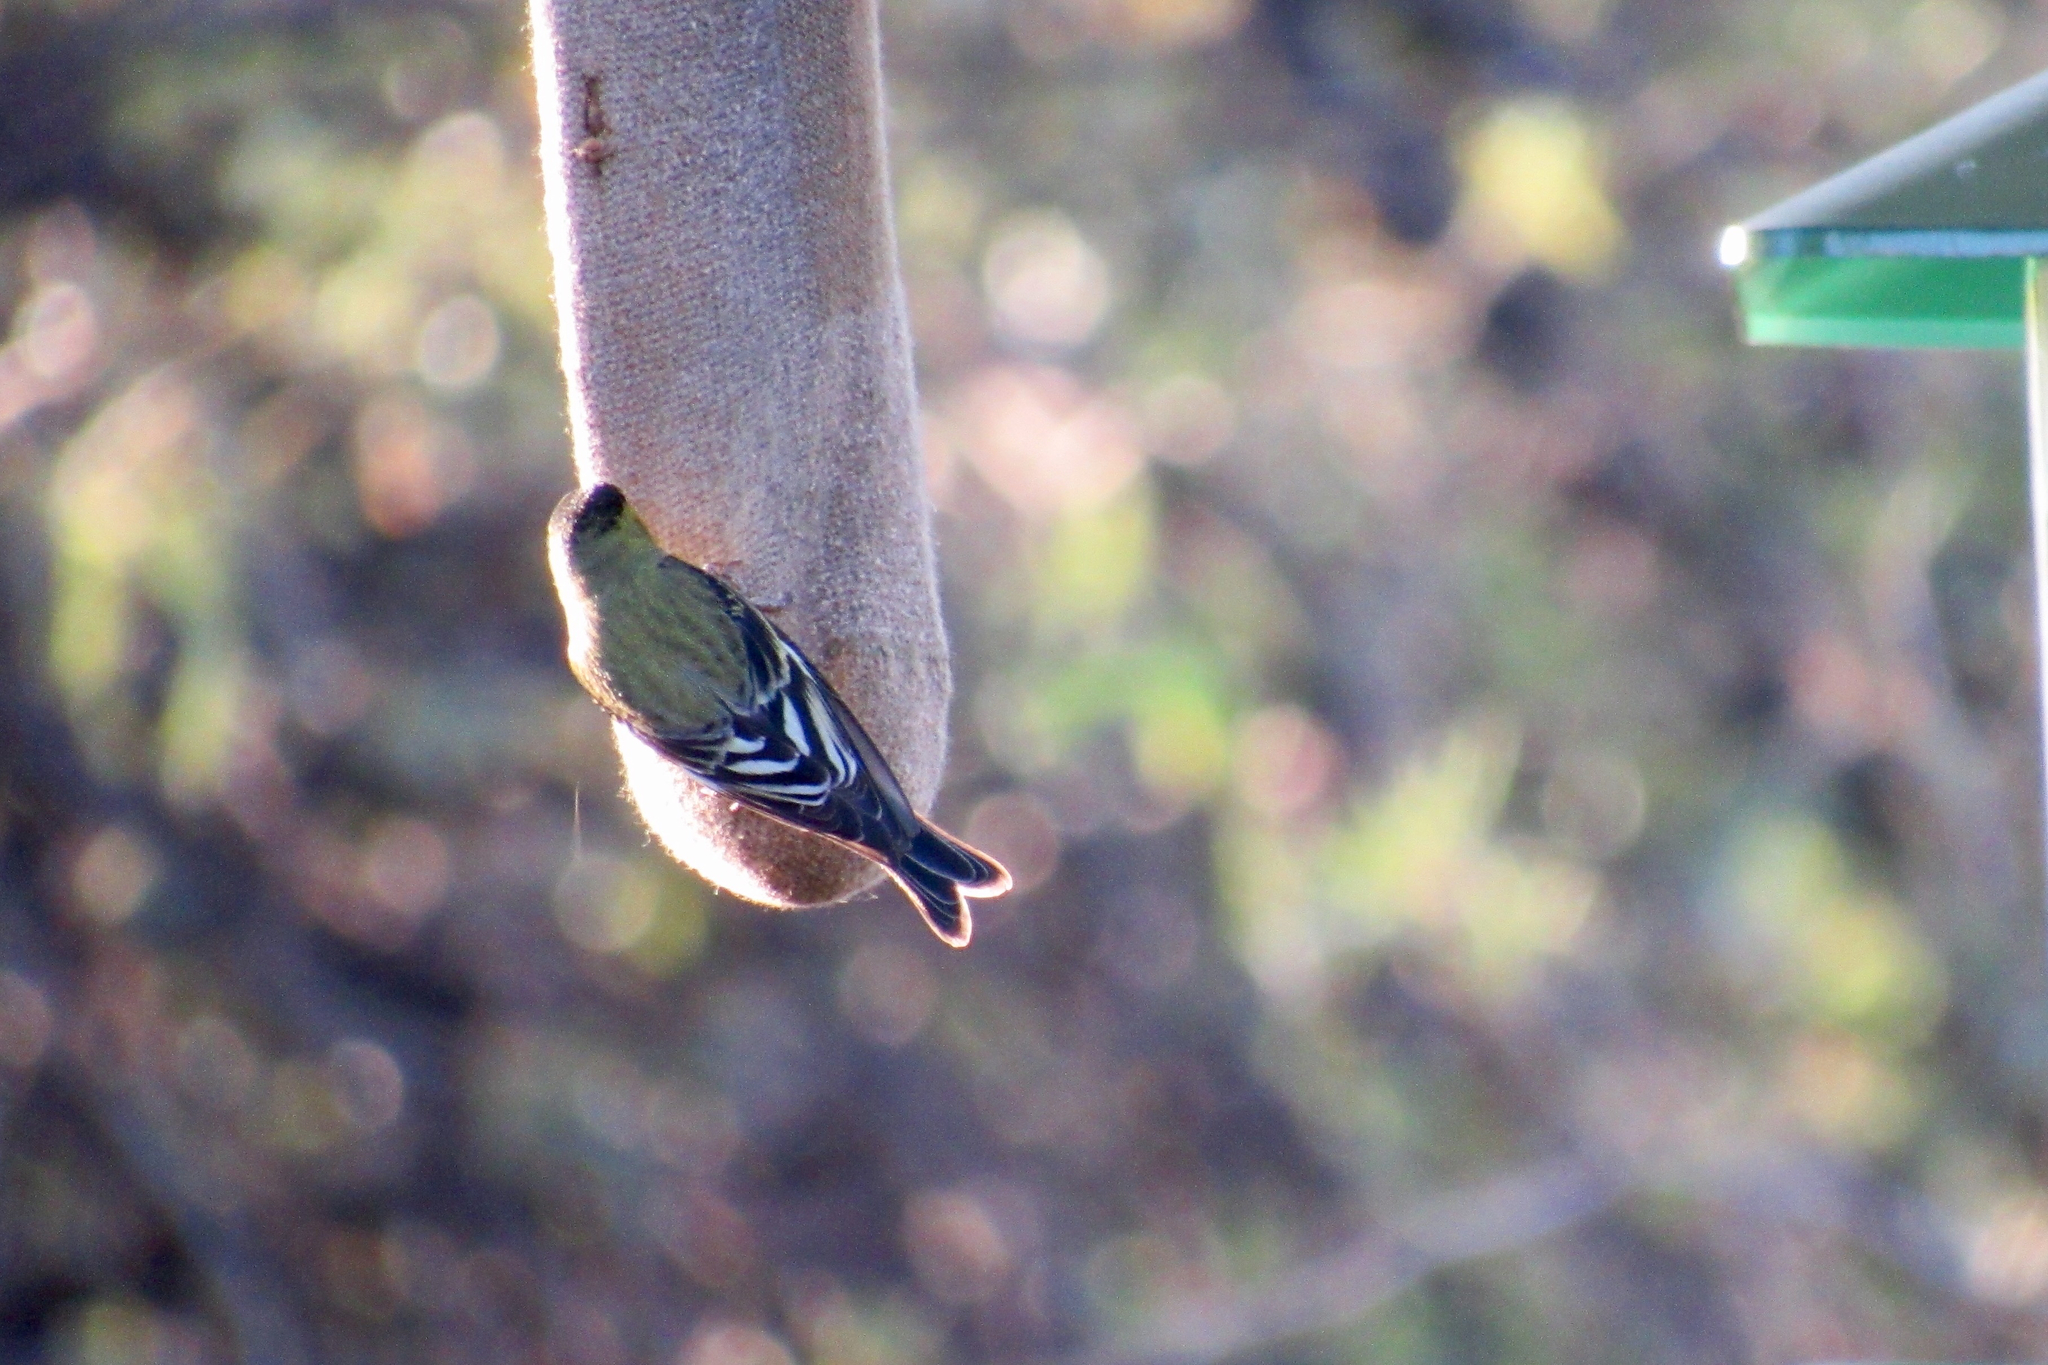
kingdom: Animalia
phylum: Chordata
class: Aves
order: Passeriformes
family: Fringillidae
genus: Spinus
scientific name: Spinus psaltria
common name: Lesser goldfinch
